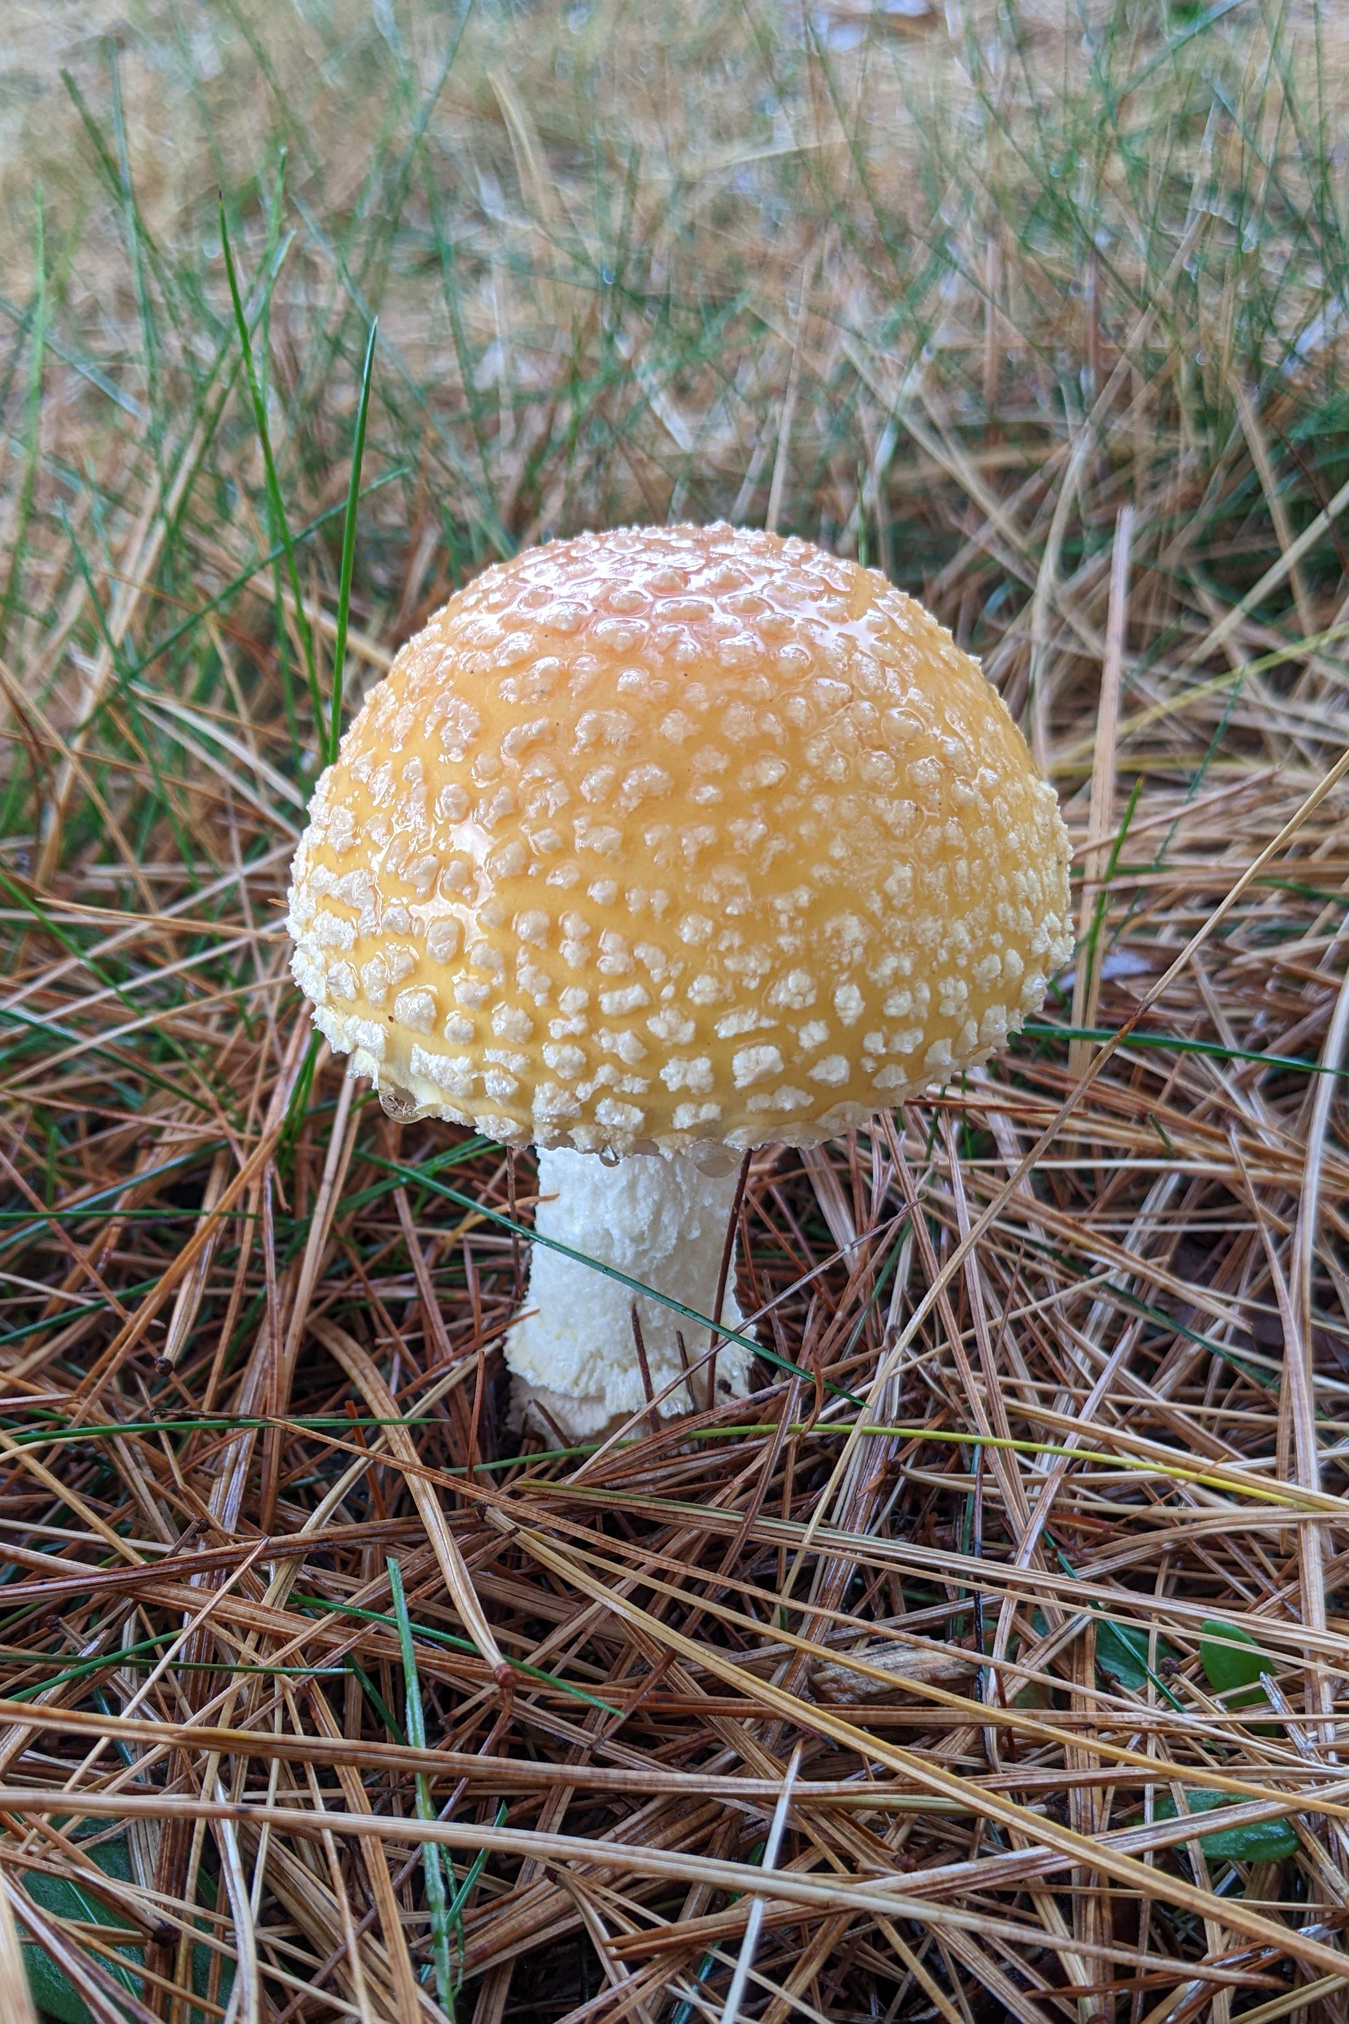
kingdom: Fungi
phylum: Basidiomycota
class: Agaricomycetes
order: Agaricales
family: Amanitaceae
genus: Amanita
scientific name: Amanita muscaria
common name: Fly agaric
